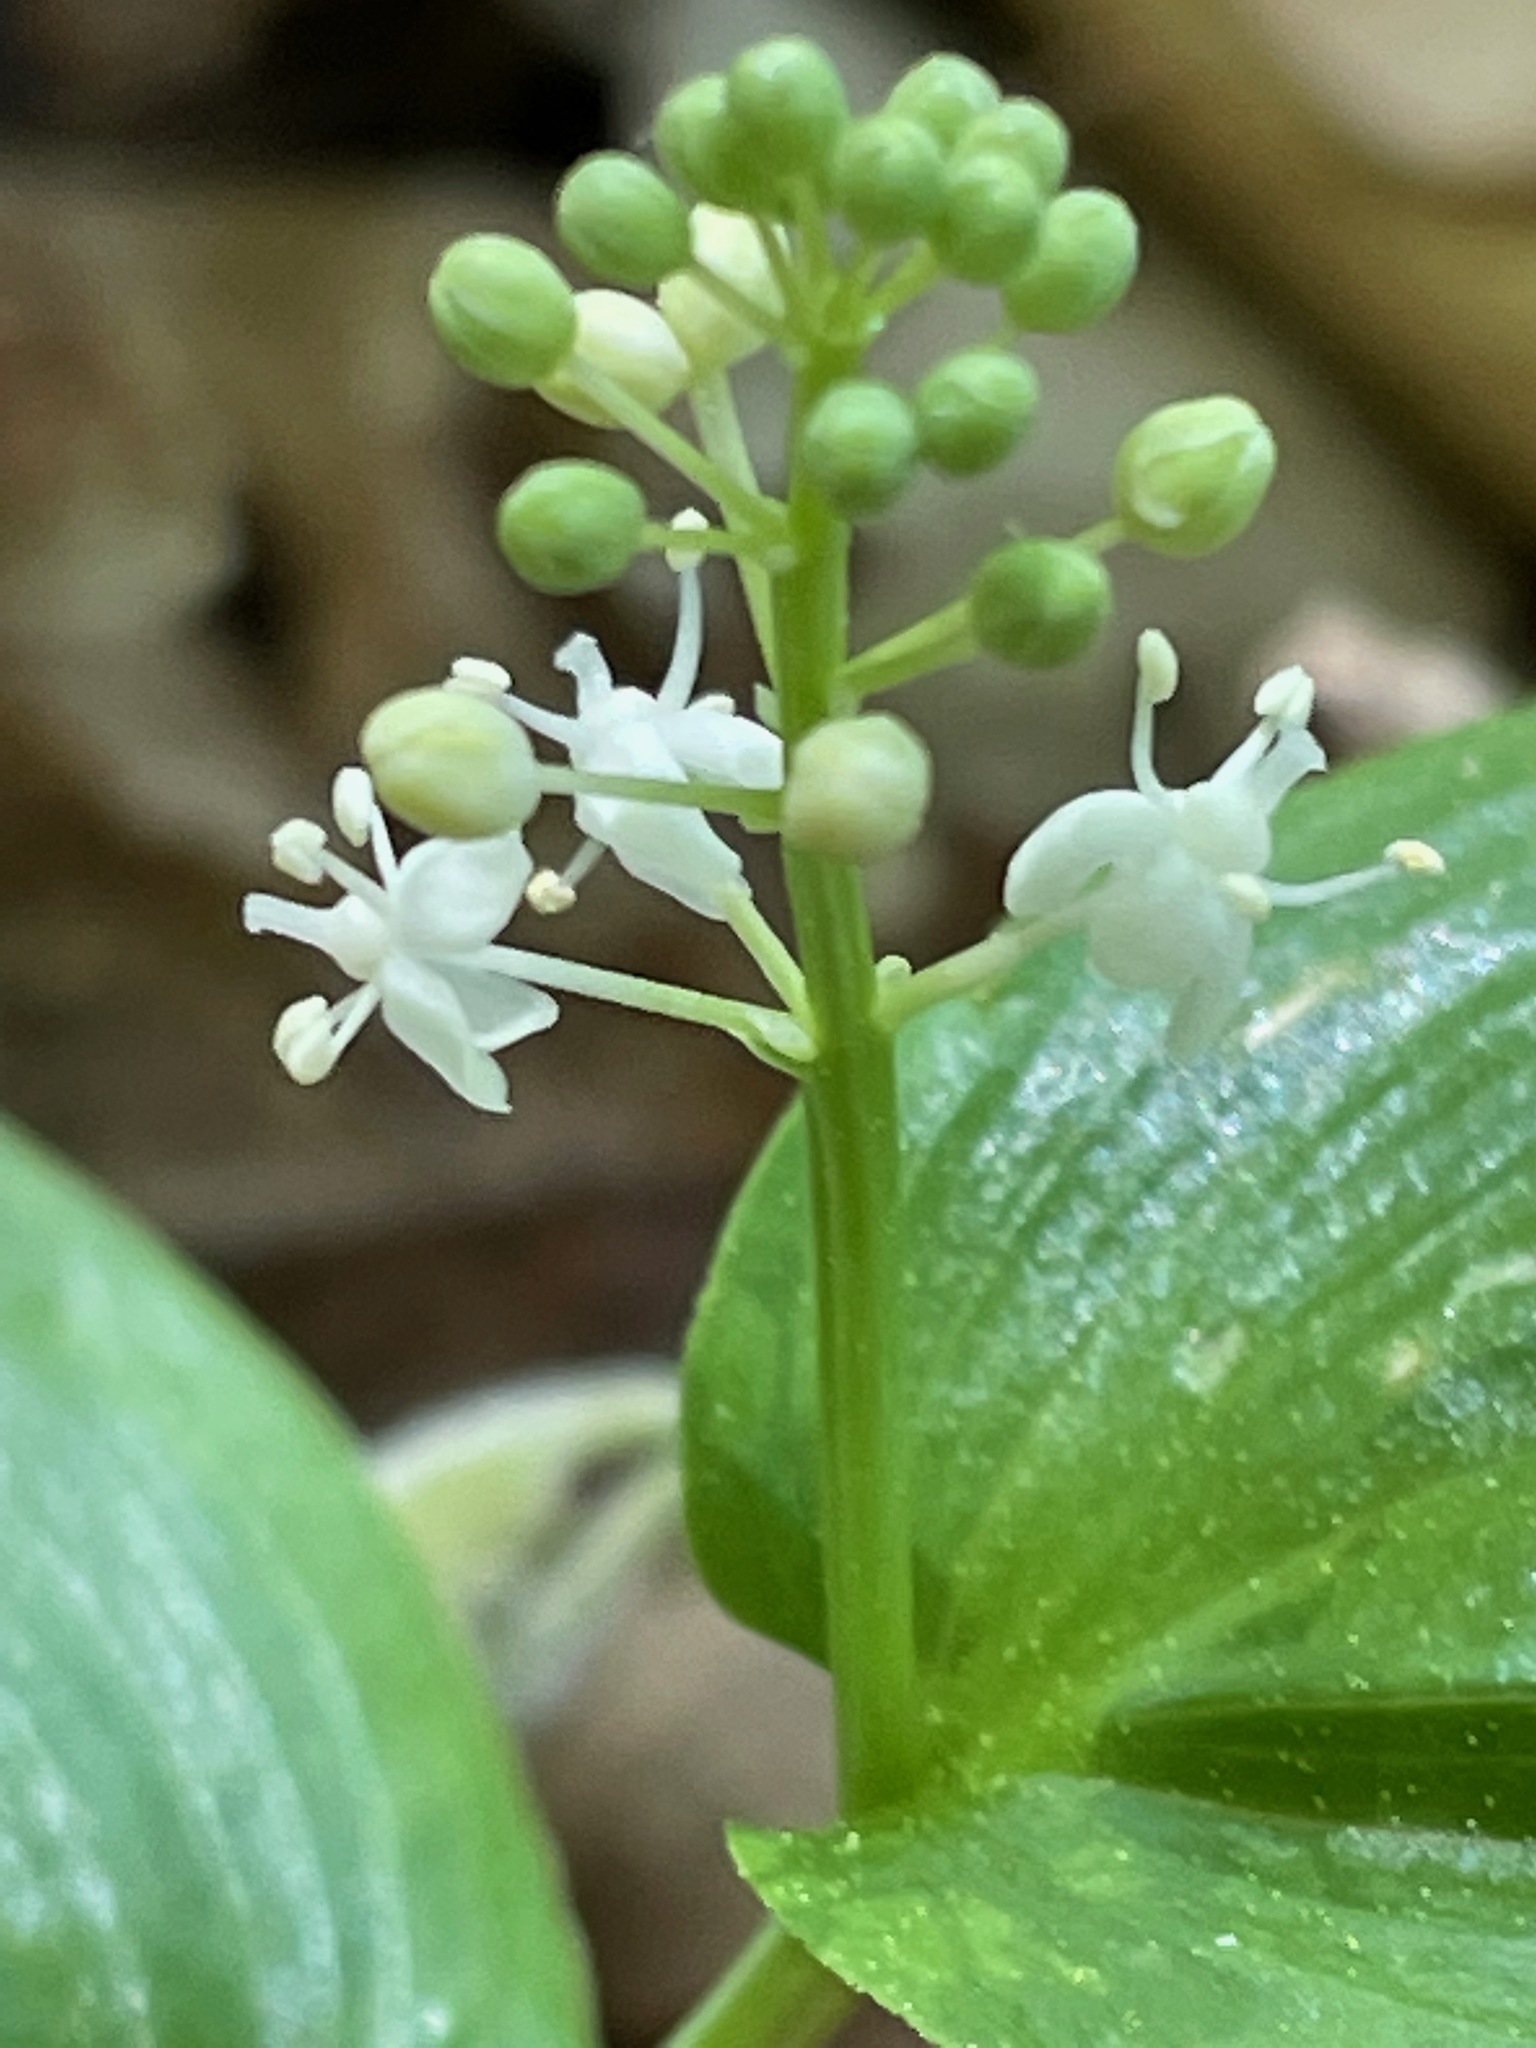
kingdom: Plantae
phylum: Tracheophyta
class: Liliopsida
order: Asparagales
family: Asparagaceae
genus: Maianthemum
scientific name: Maianthemum canadense
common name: False lily-of-the-valley
